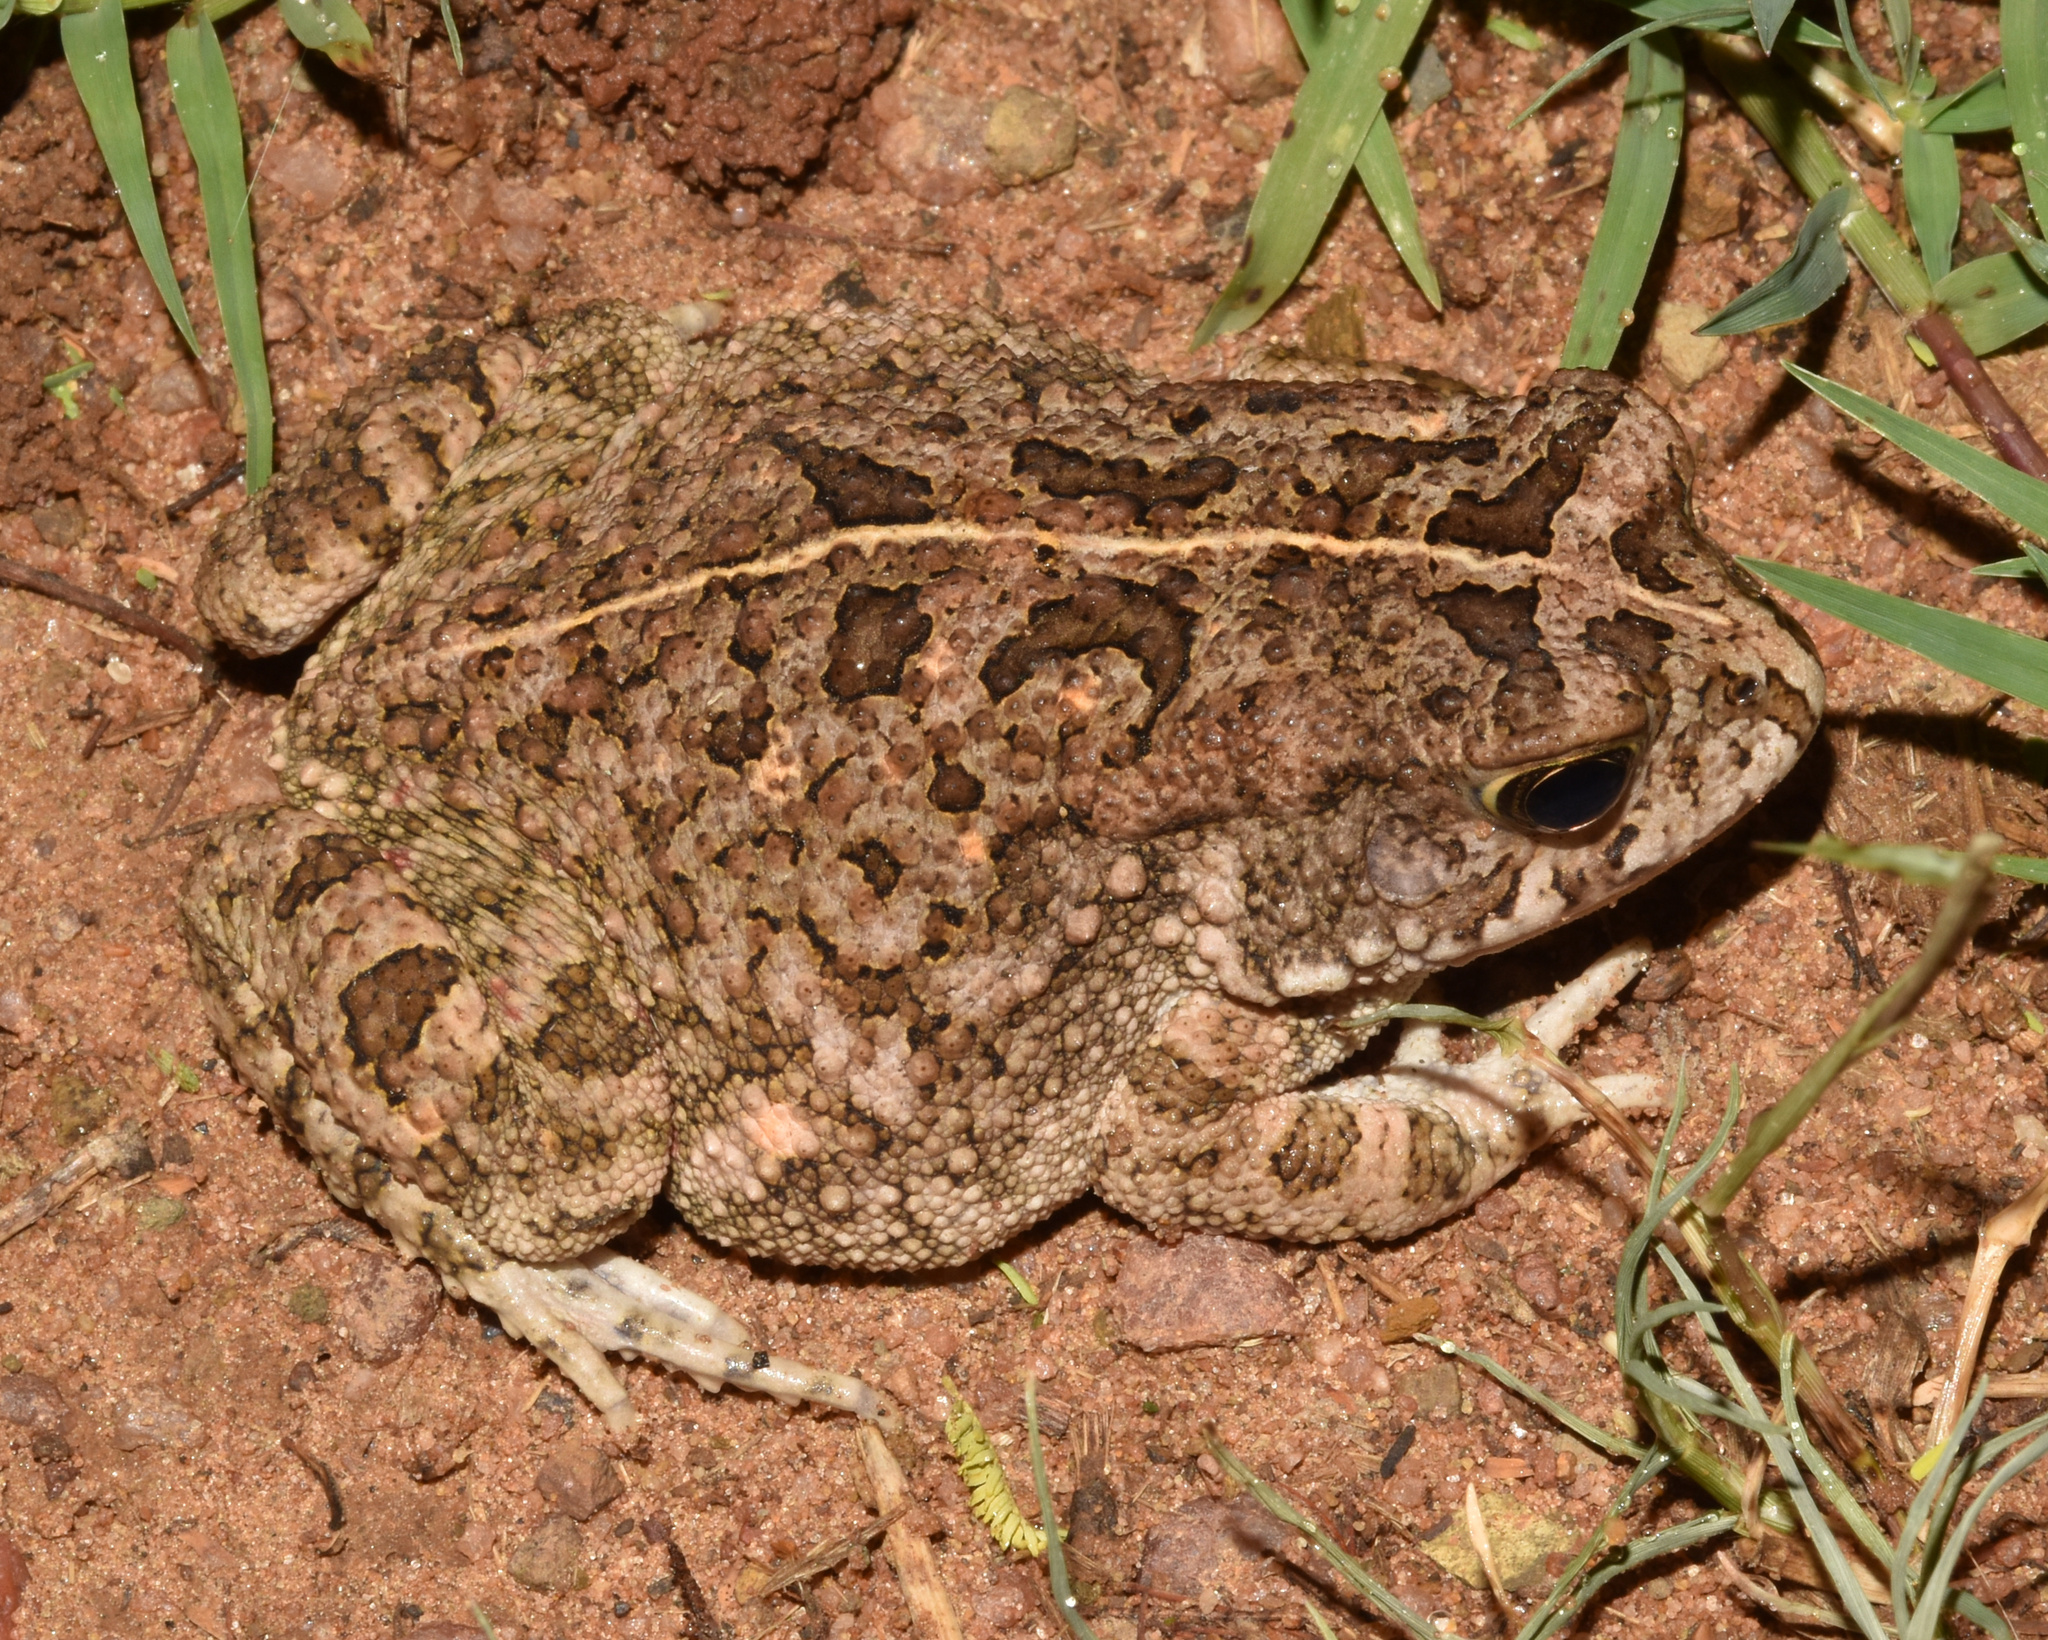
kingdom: Animalia
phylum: Chordata
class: Amphibia
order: Anura
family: Bufonidae
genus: Sclerophrys
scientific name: Sclerophrys gutturalis
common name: African common toad
